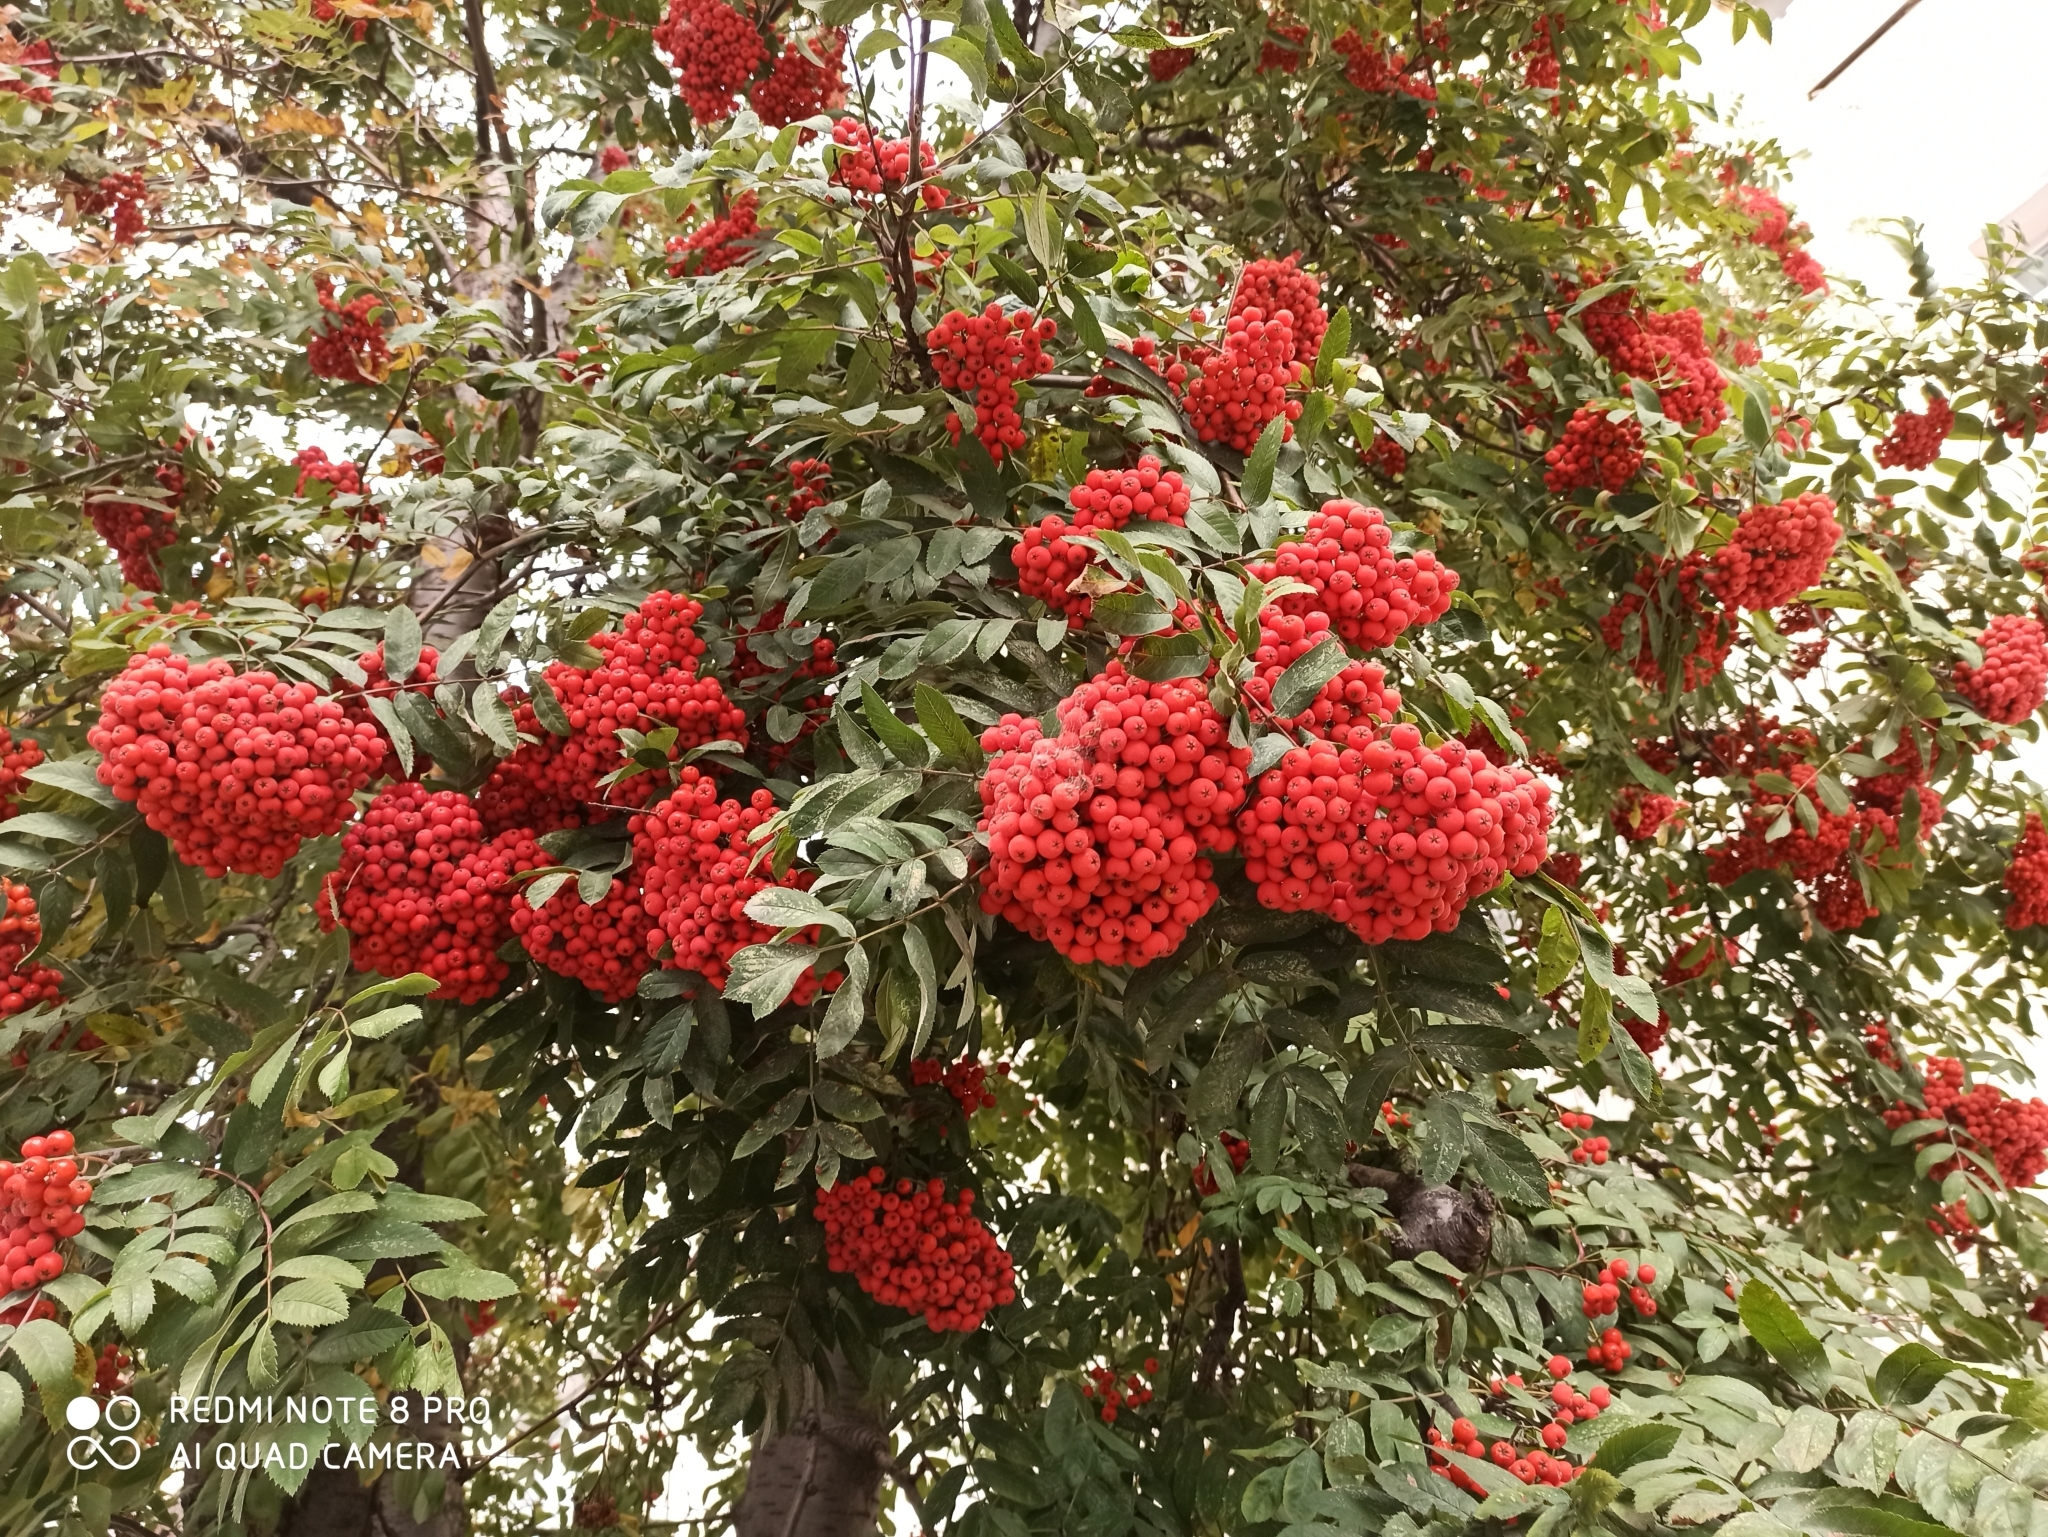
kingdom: Plantae
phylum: Tracheophyta
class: Magnoliopsida
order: Rosales
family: Rosaceae
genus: Sorbus
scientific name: Sorbus aucuparia
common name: Rowan
